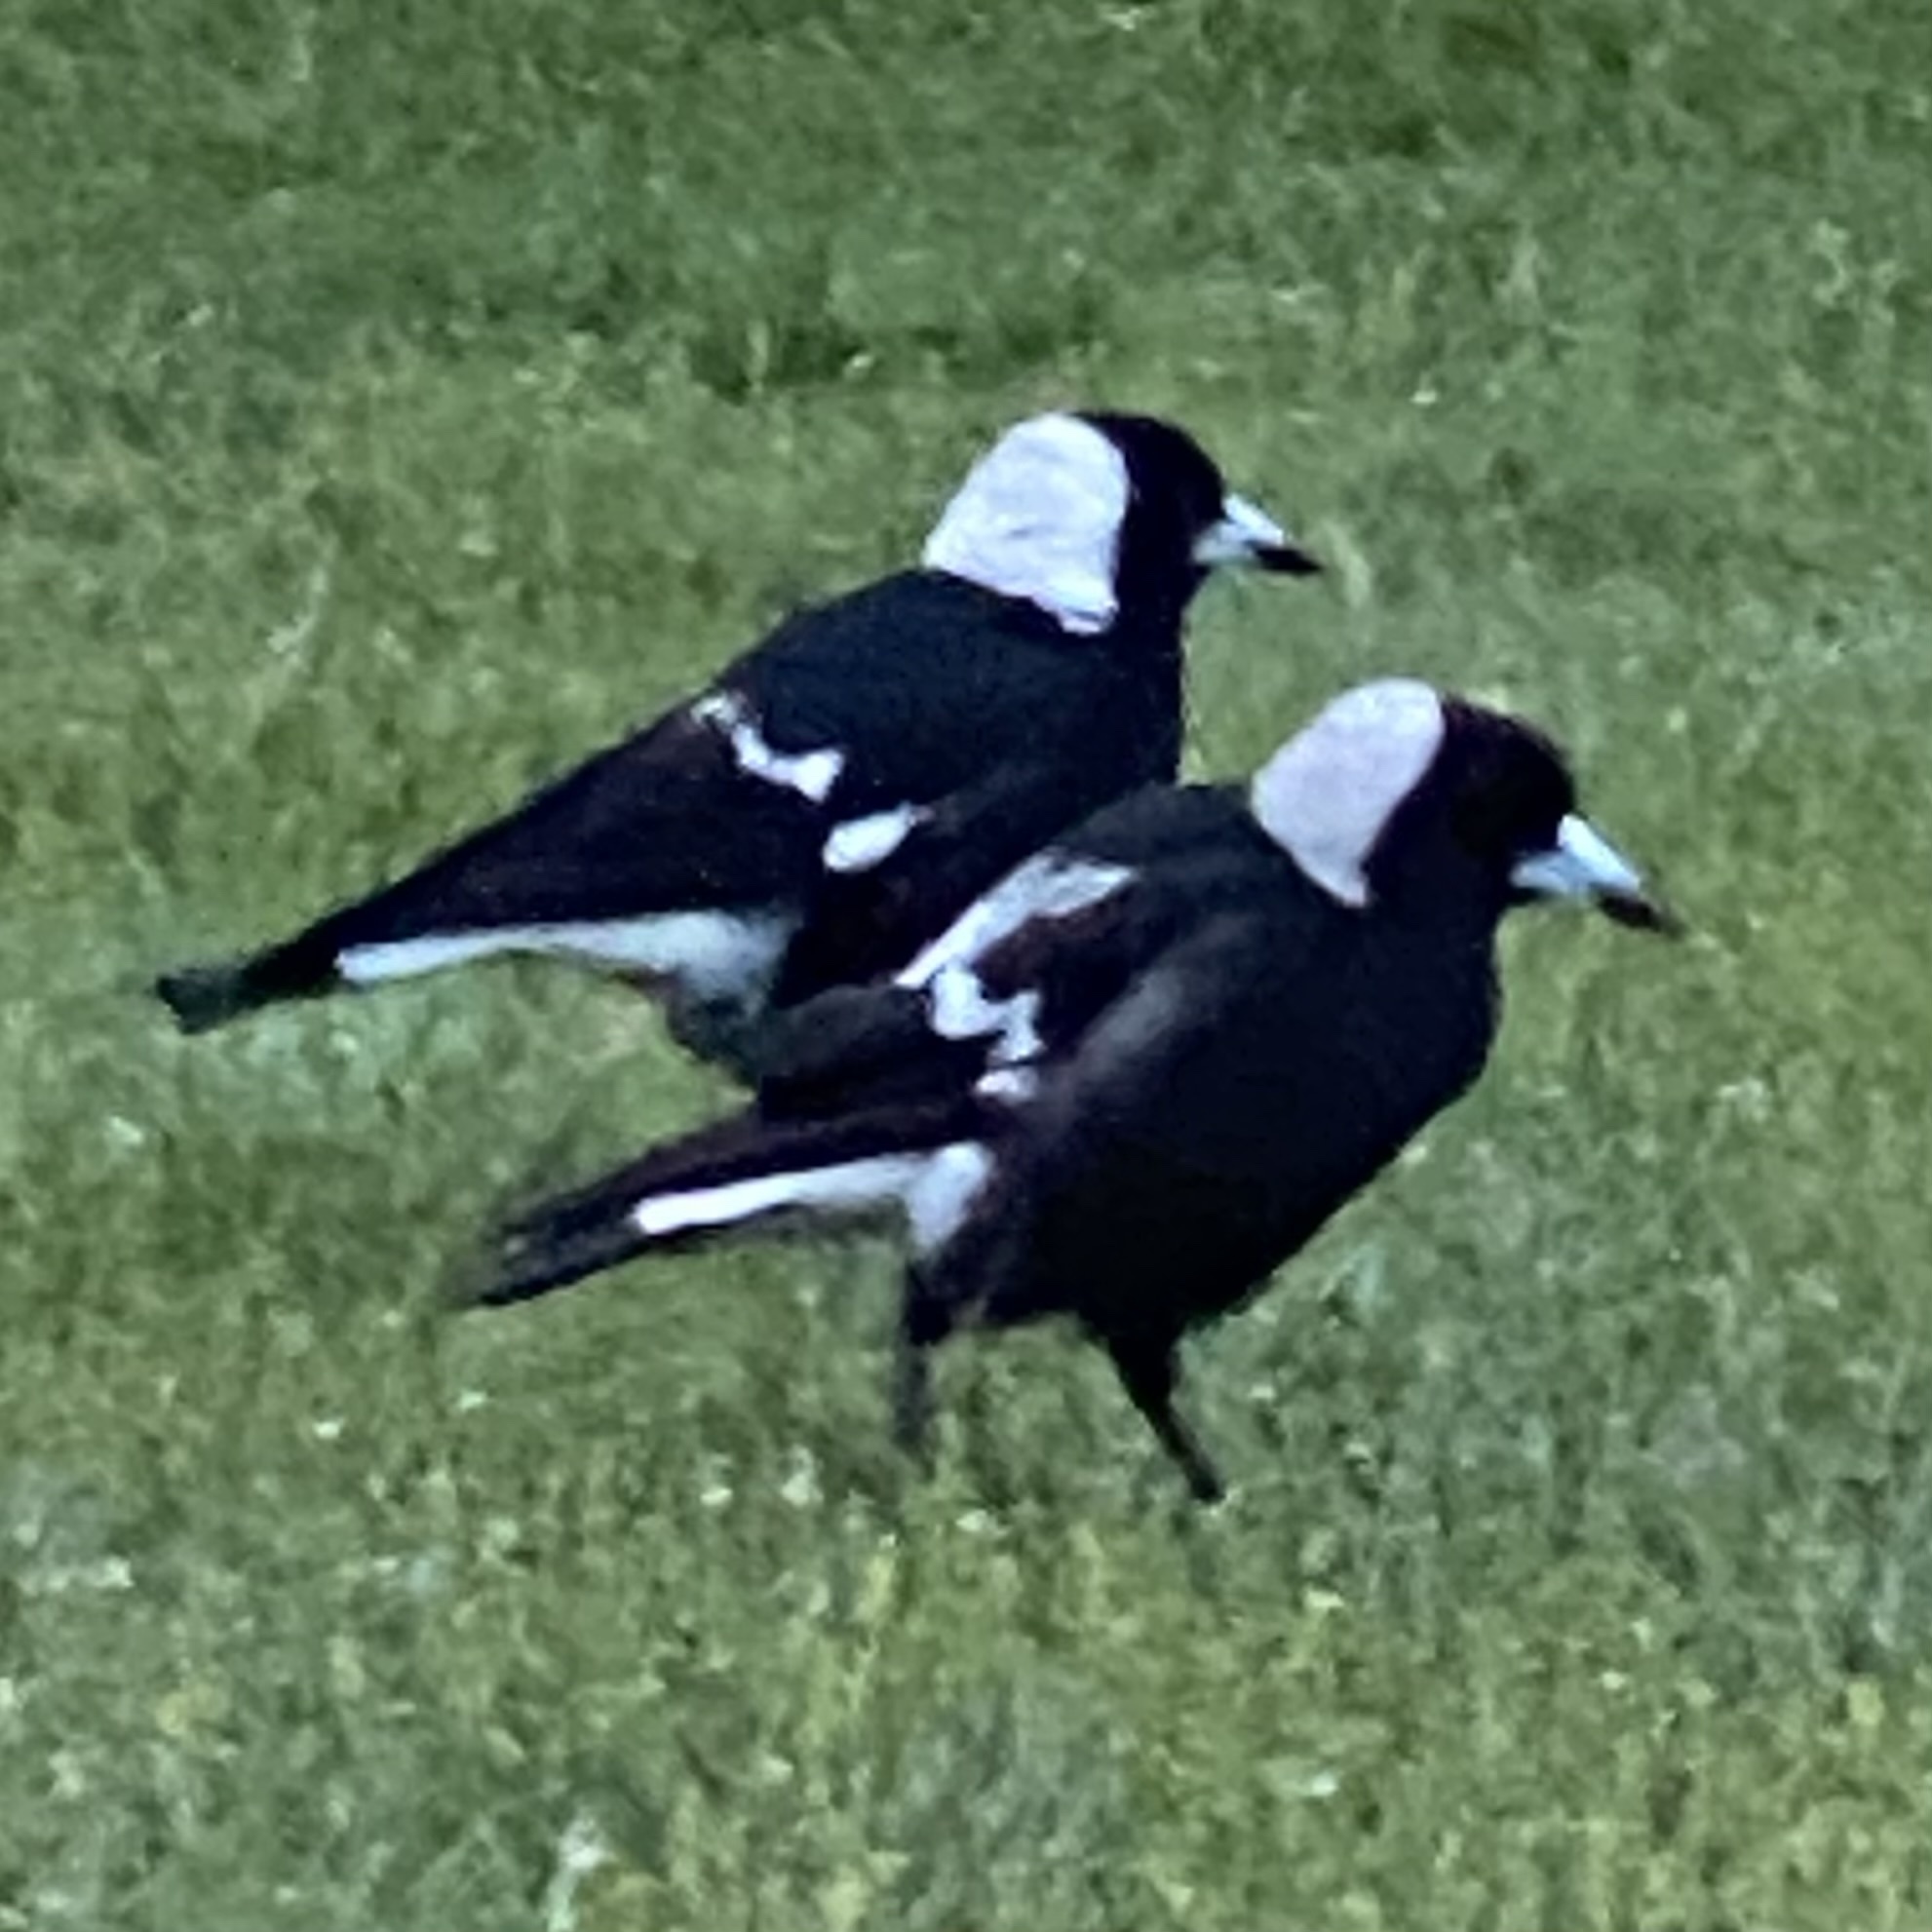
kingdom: Animalia
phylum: Chordata
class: Aves
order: Passeriformes
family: Cracticidae
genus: Gymnorhina
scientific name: Gymnorhina tibicen
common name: Australian magpie
